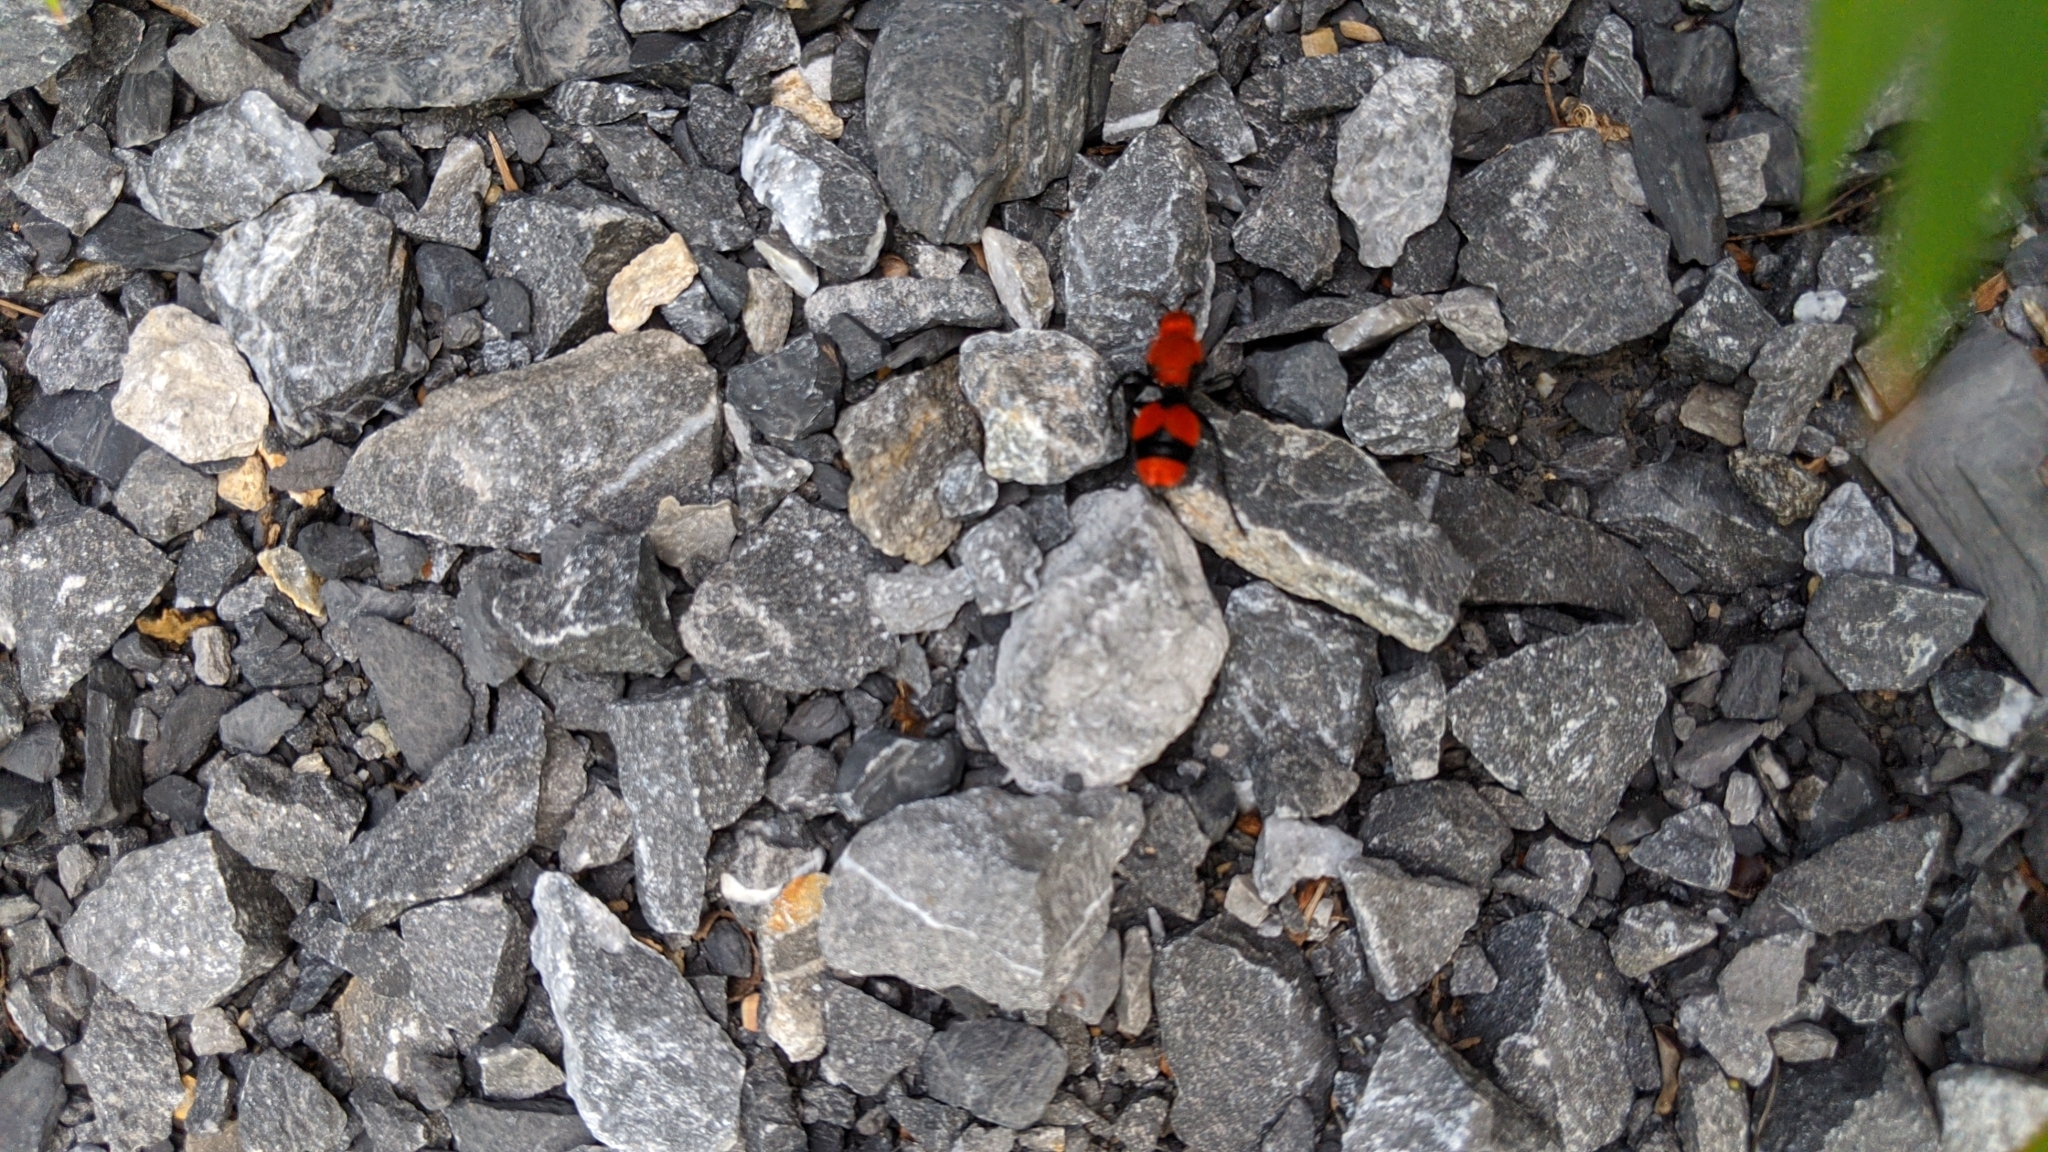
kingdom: Animalia
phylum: Arthropoda
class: Insecta
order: Hymenoptera
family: Mutillidae
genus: Dasymutilla
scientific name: Dasymutilla occidentalis
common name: Common eastern velvet ant
